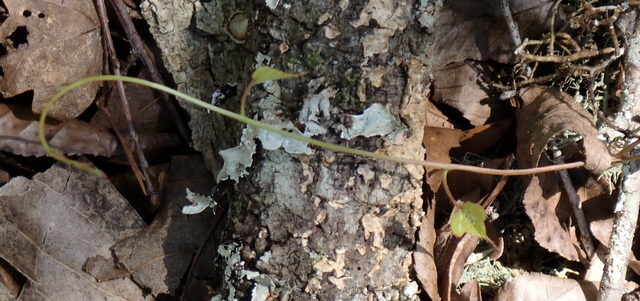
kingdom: Plantae
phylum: Tracheophyta
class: Magnoliopsida
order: Solanales
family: Convolvulaceae
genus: Ipomoea
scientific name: Ipomoea pandurata
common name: Man-of-the-earth
